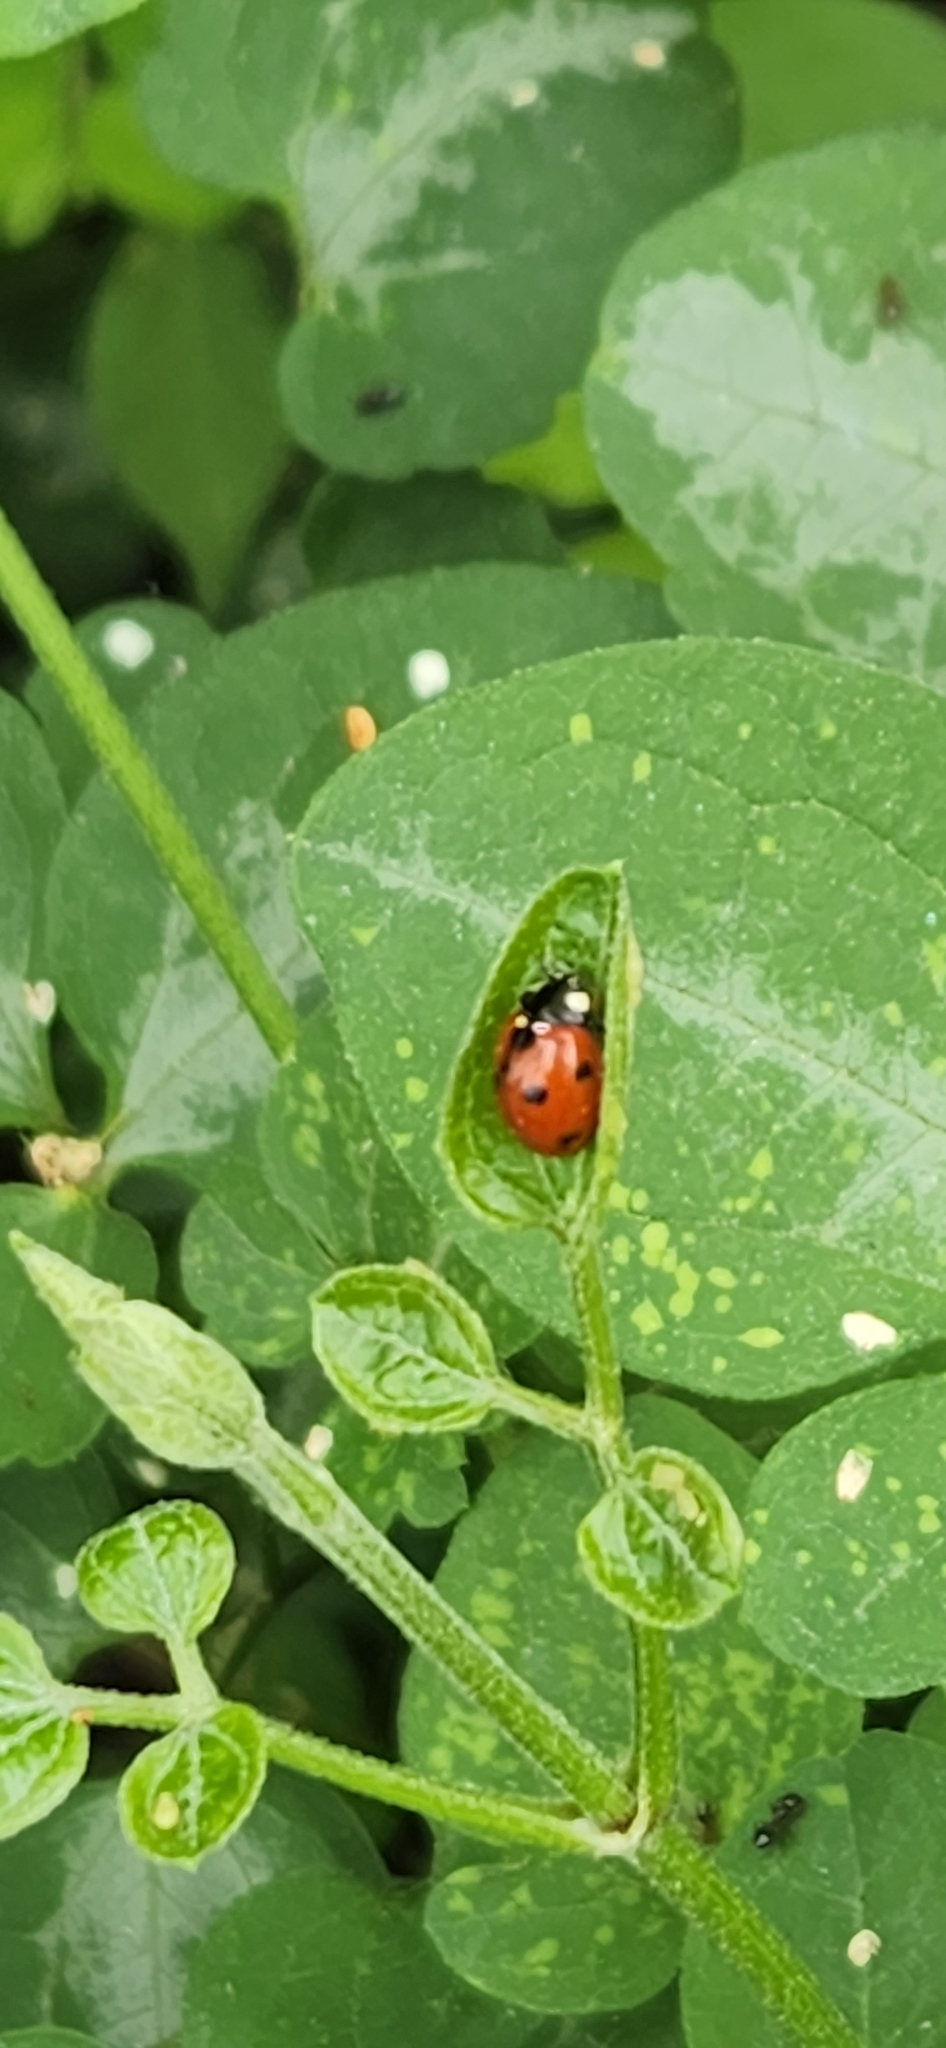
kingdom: Animalia
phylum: Arthropoda
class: Insecta
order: Coleoptera
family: Coccinellidae
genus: Coccinella
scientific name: Coccinella septempunctata
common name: Sevenspotted lady beetle
